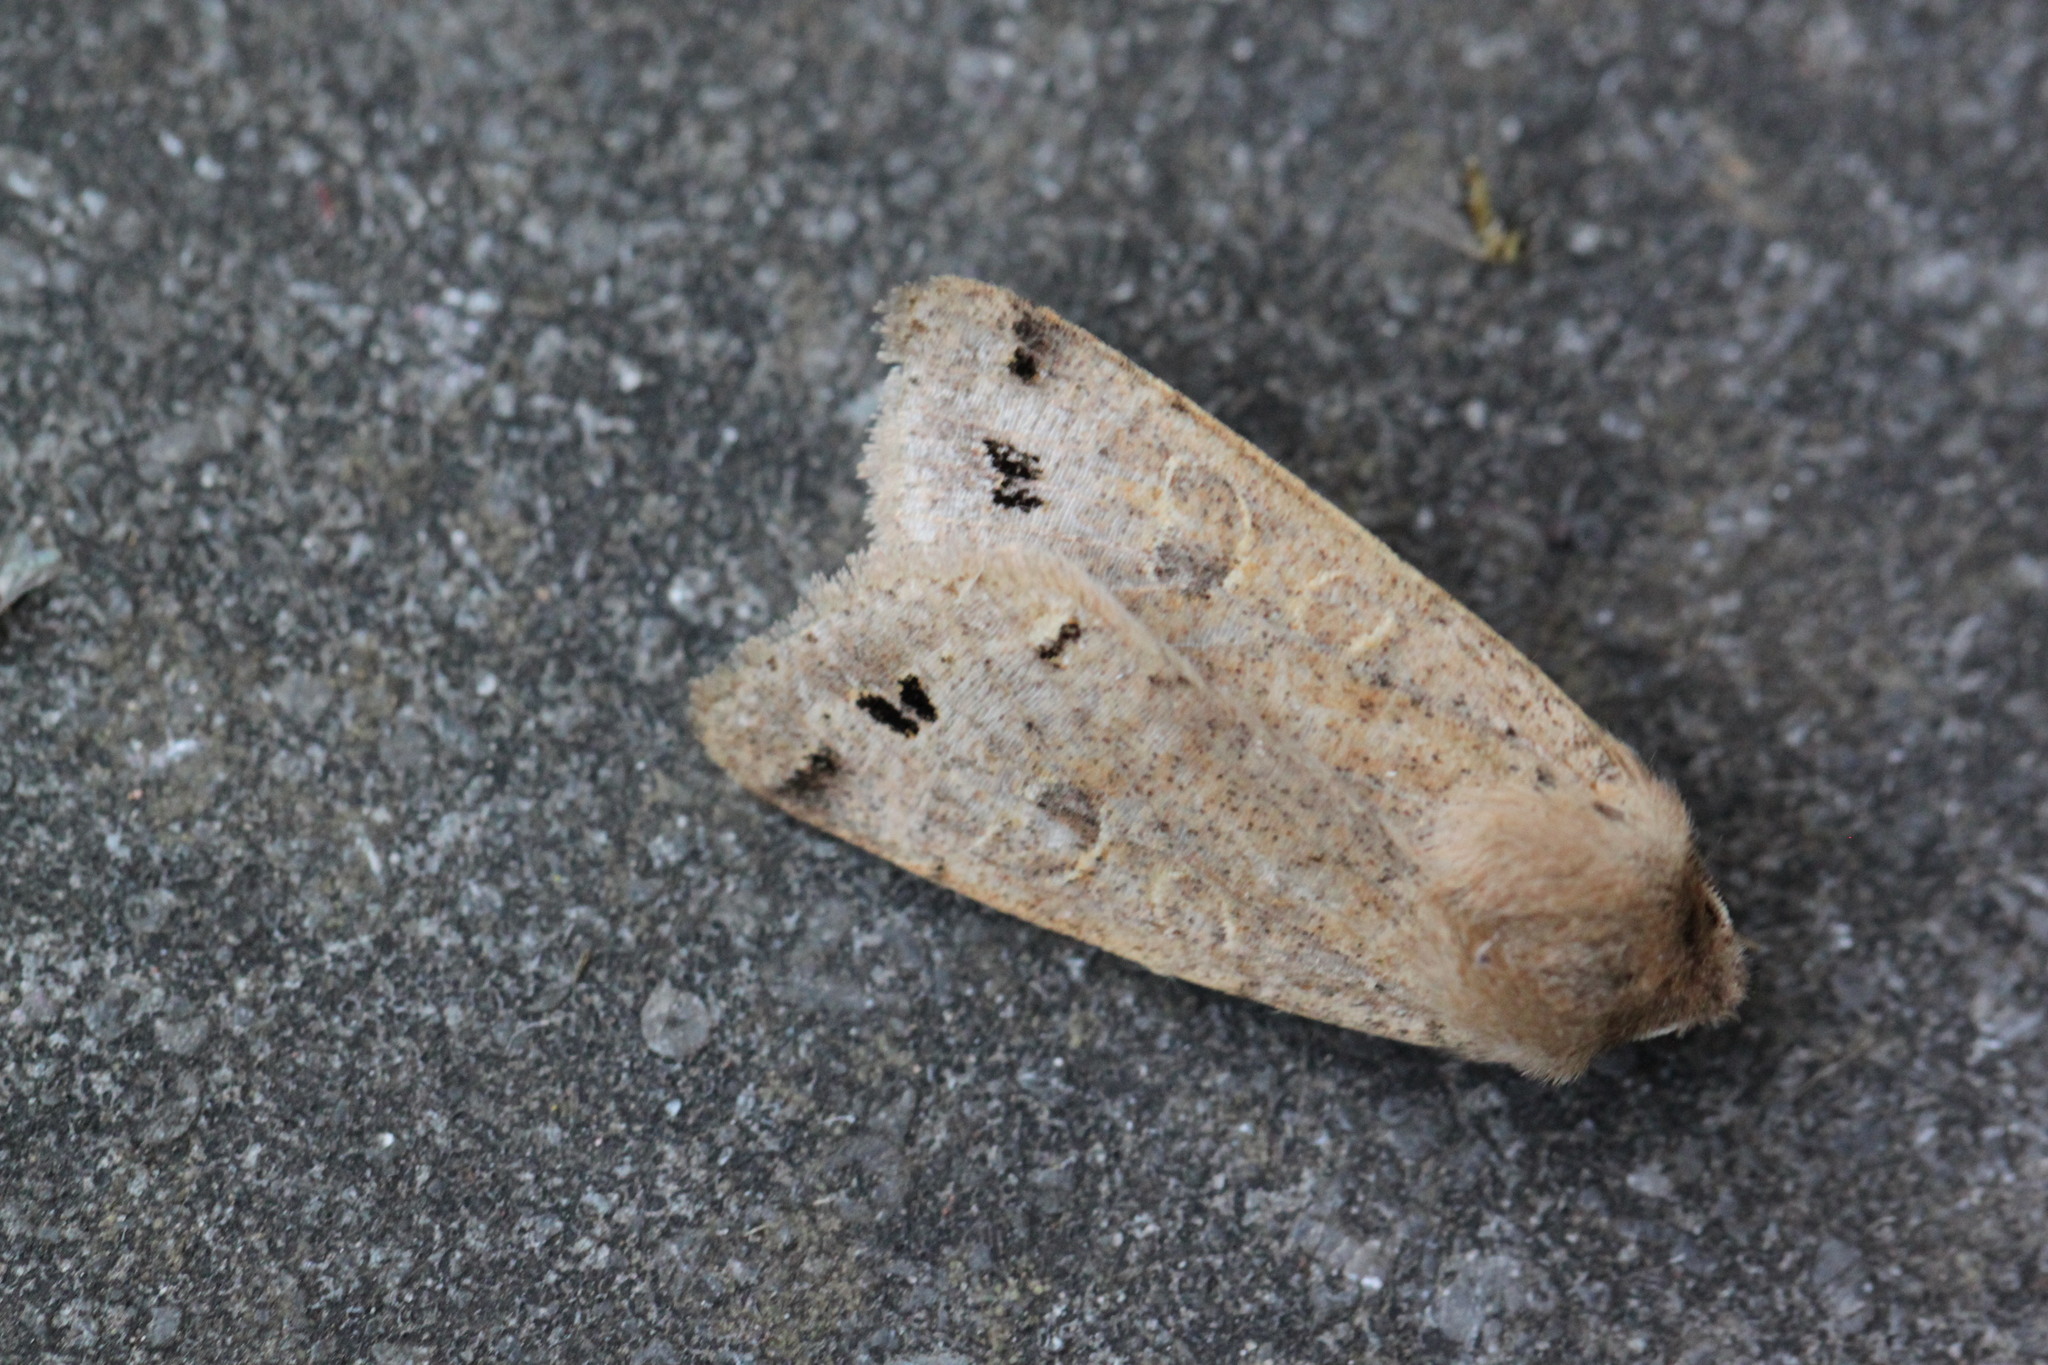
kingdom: Animalia
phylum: Arthropoda
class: Insecta
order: Lepidoptera
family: Noctuidae
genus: Anorthoa
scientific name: Anorthoa munda
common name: Twin-spotted quaker
